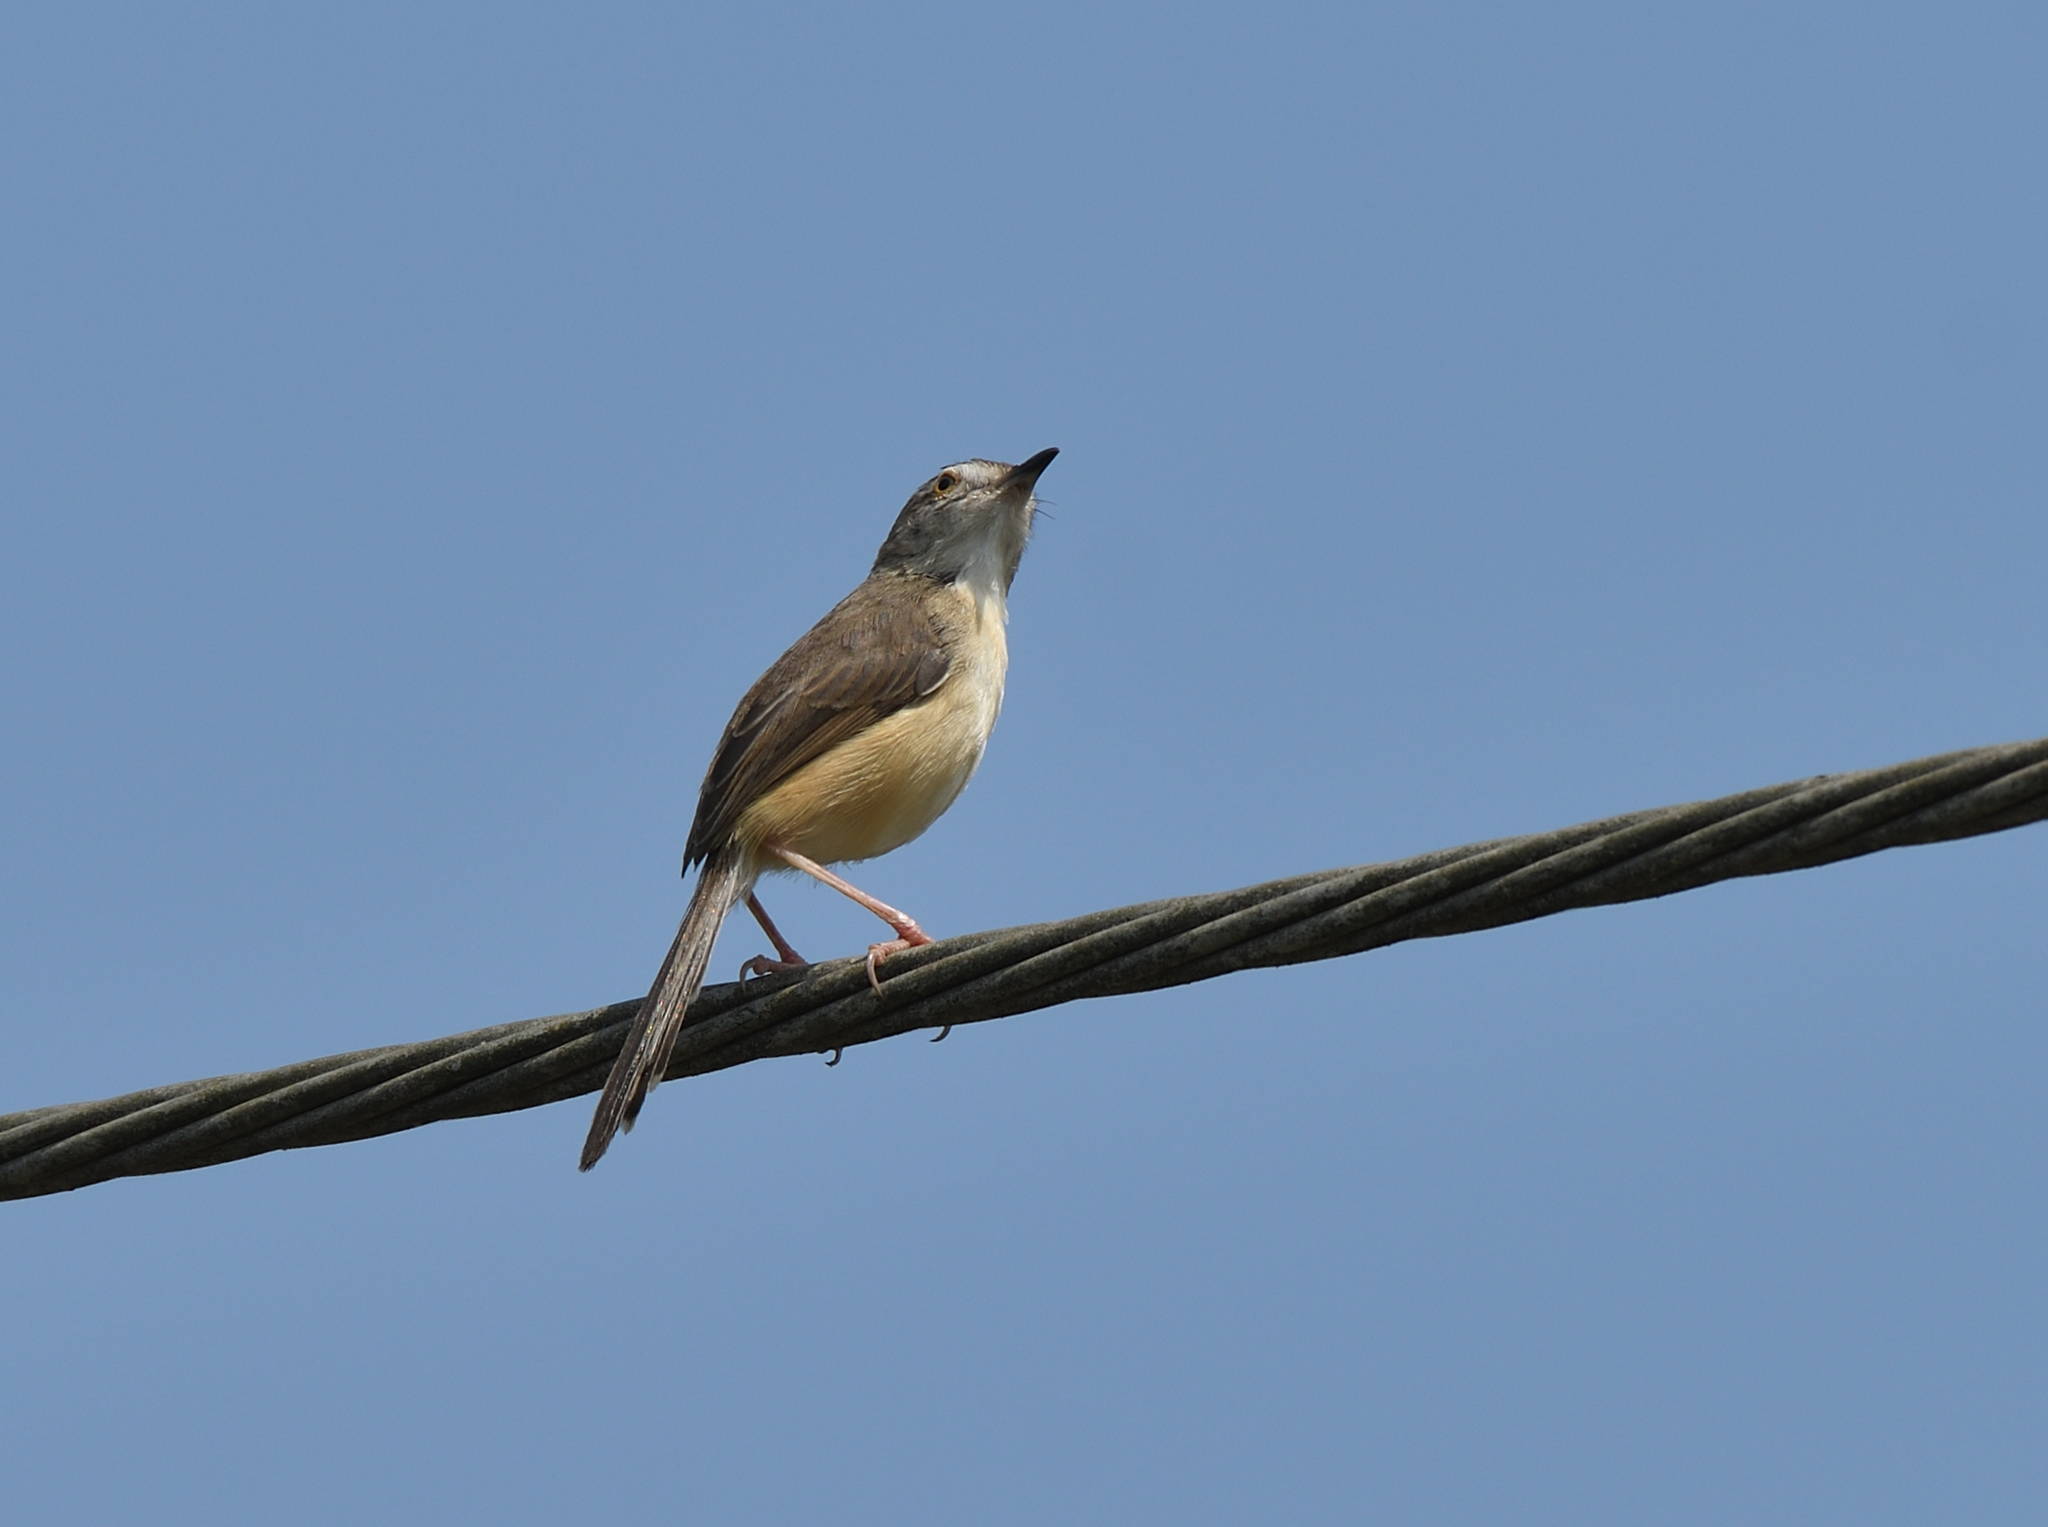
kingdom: Animalia
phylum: Chordata
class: Aves
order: Passeriformes
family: Cisticolidae
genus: Prinia
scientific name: Prinia inornata
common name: Plain prinia
